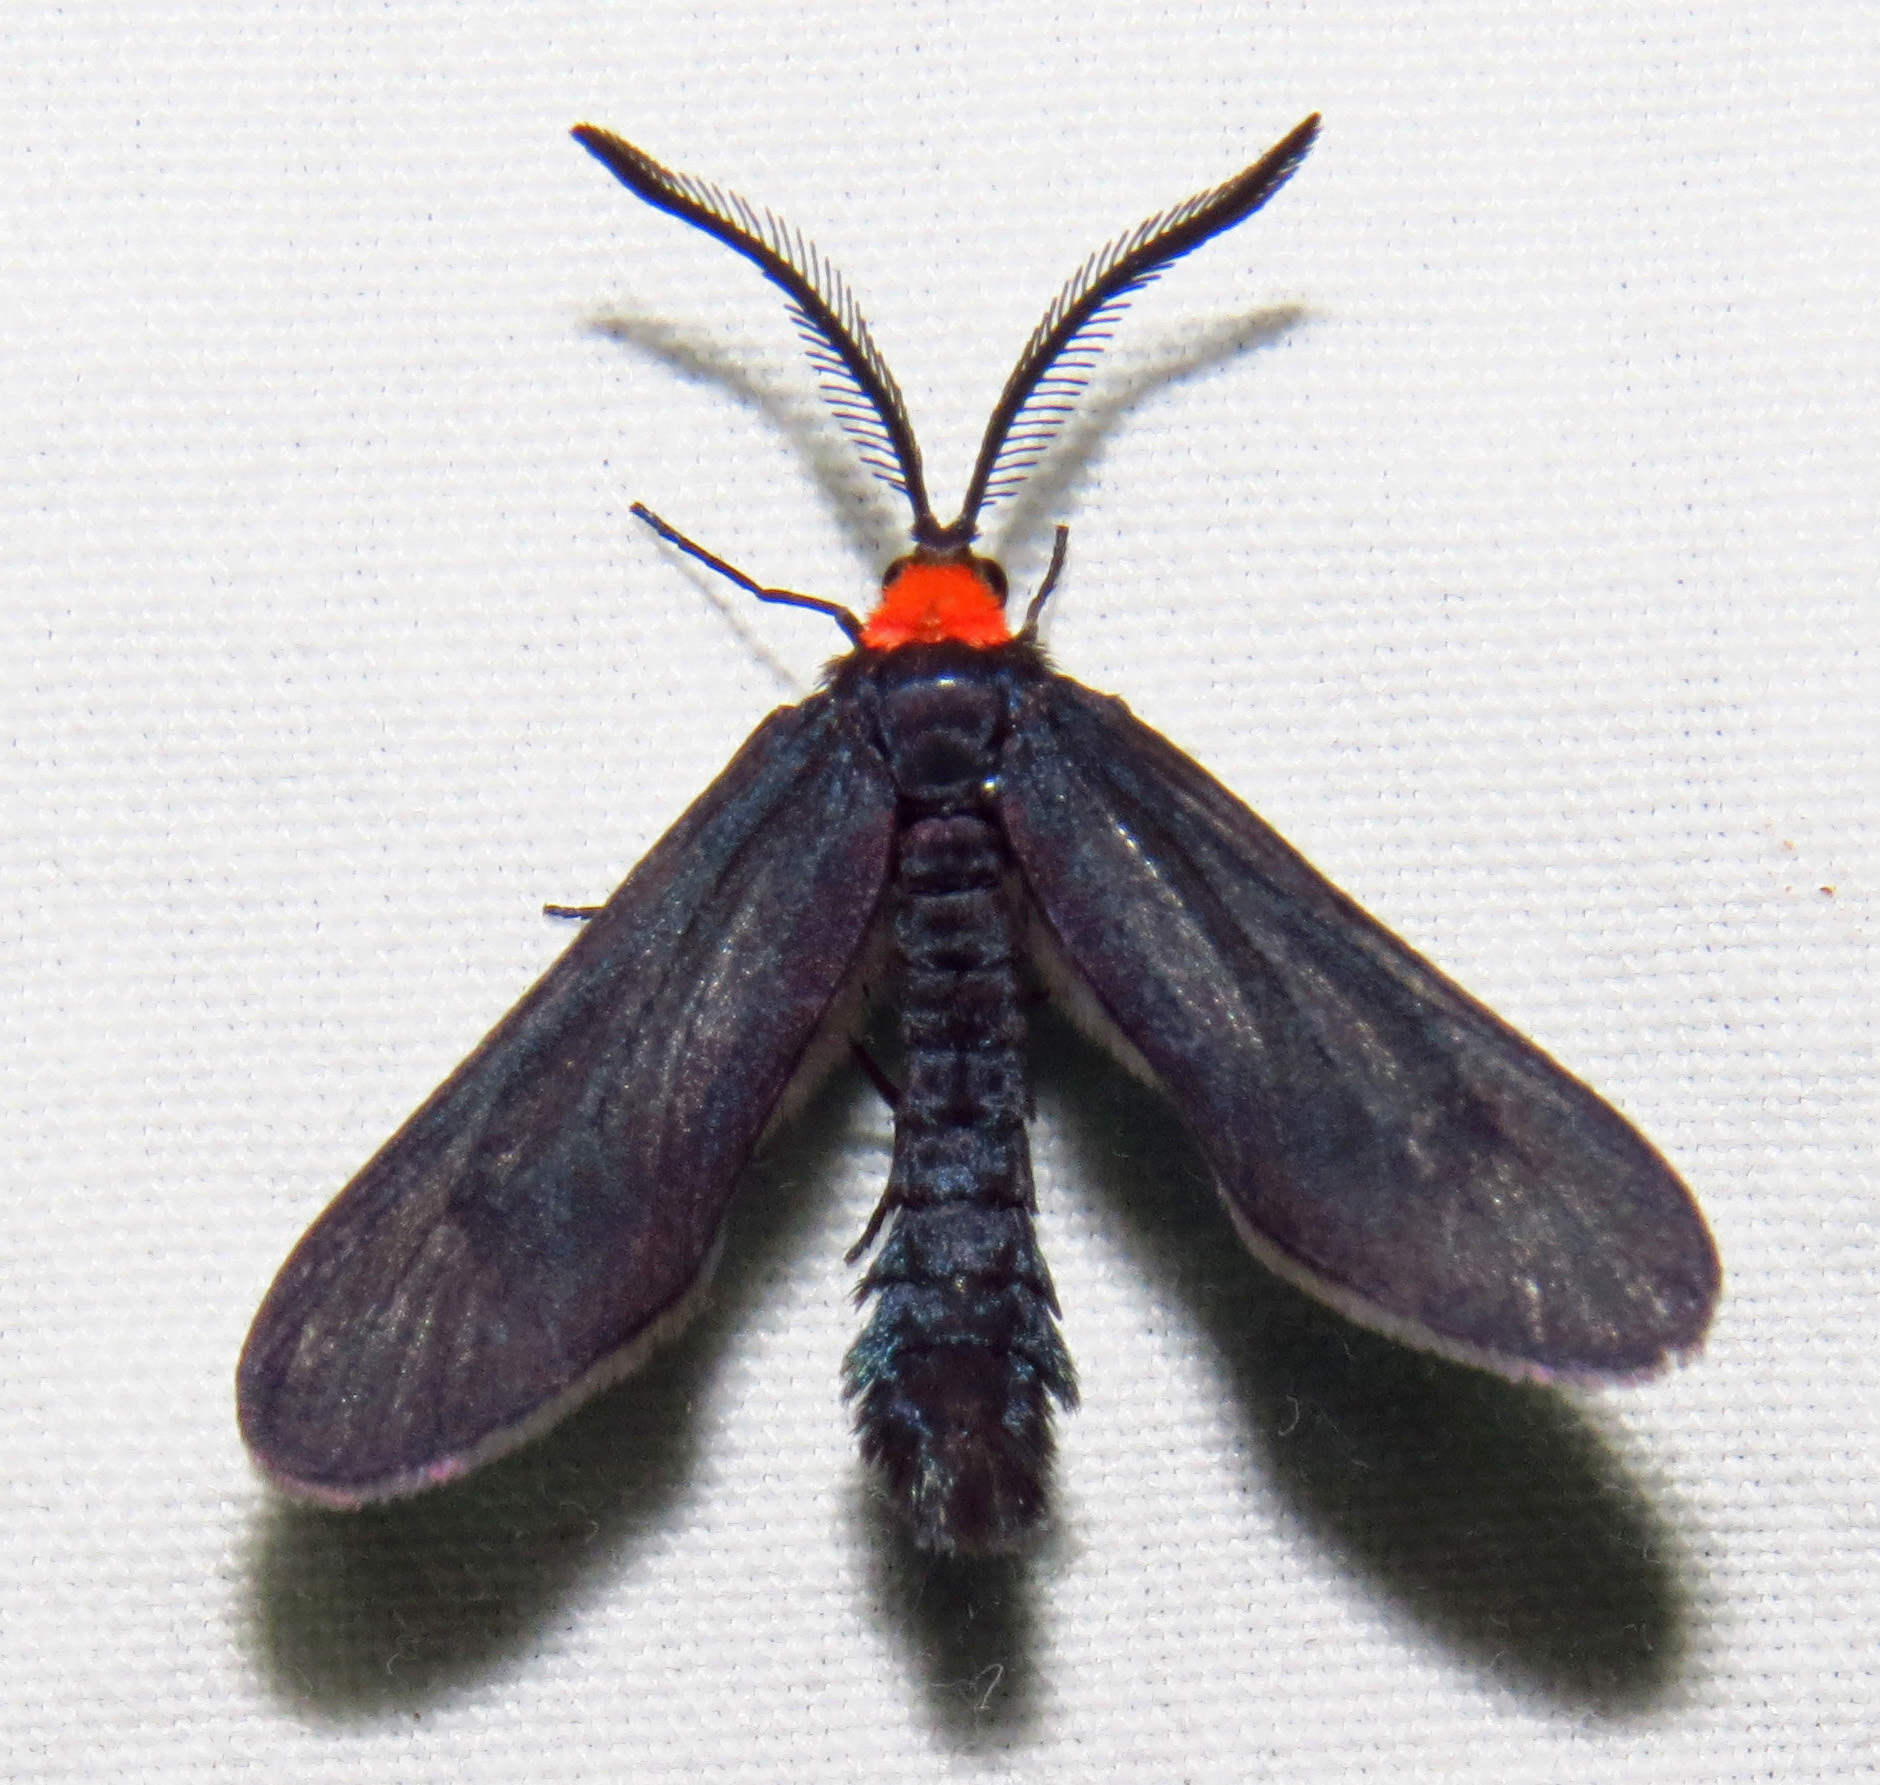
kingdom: Animalia
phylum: Arthropoda
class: Insecta
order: Lepidoptera
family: Zygaenidae
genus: Harrisina
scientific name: Harrisina americana
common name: Grapeleaf skeletonizer moth
